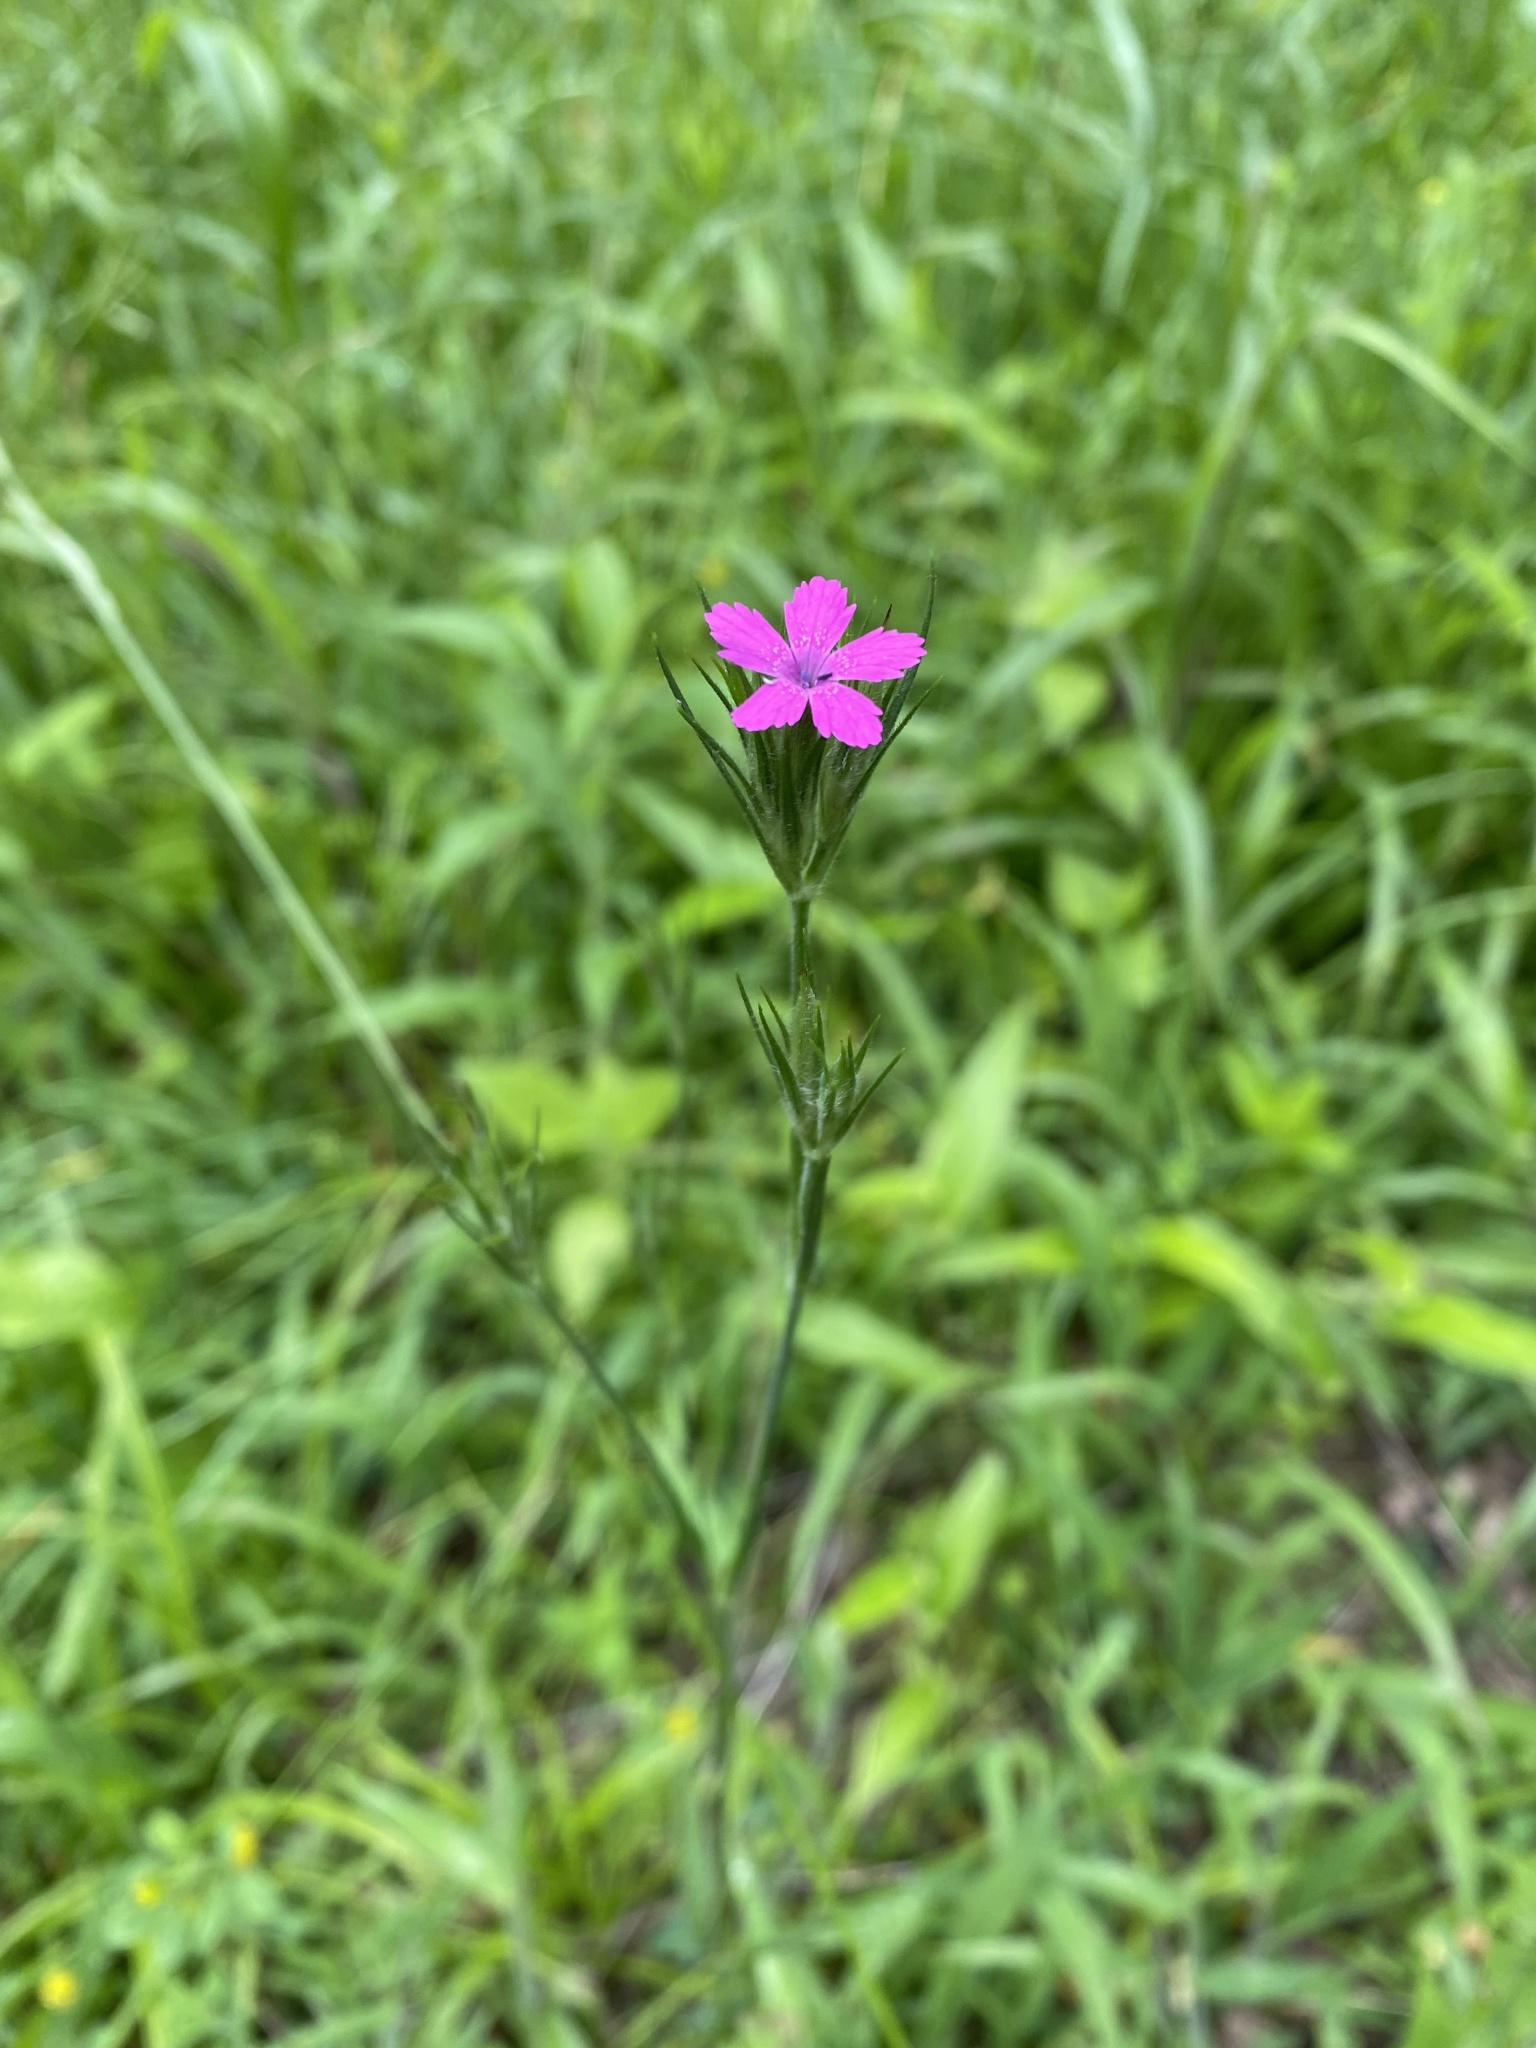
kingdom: Plantae
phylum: Tracheophyta
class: Magnoliopsida
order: Caryophyllales
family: Caryophyllaceae
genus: Dianthus
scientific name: Dianthus armeria
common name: Deptford pink
